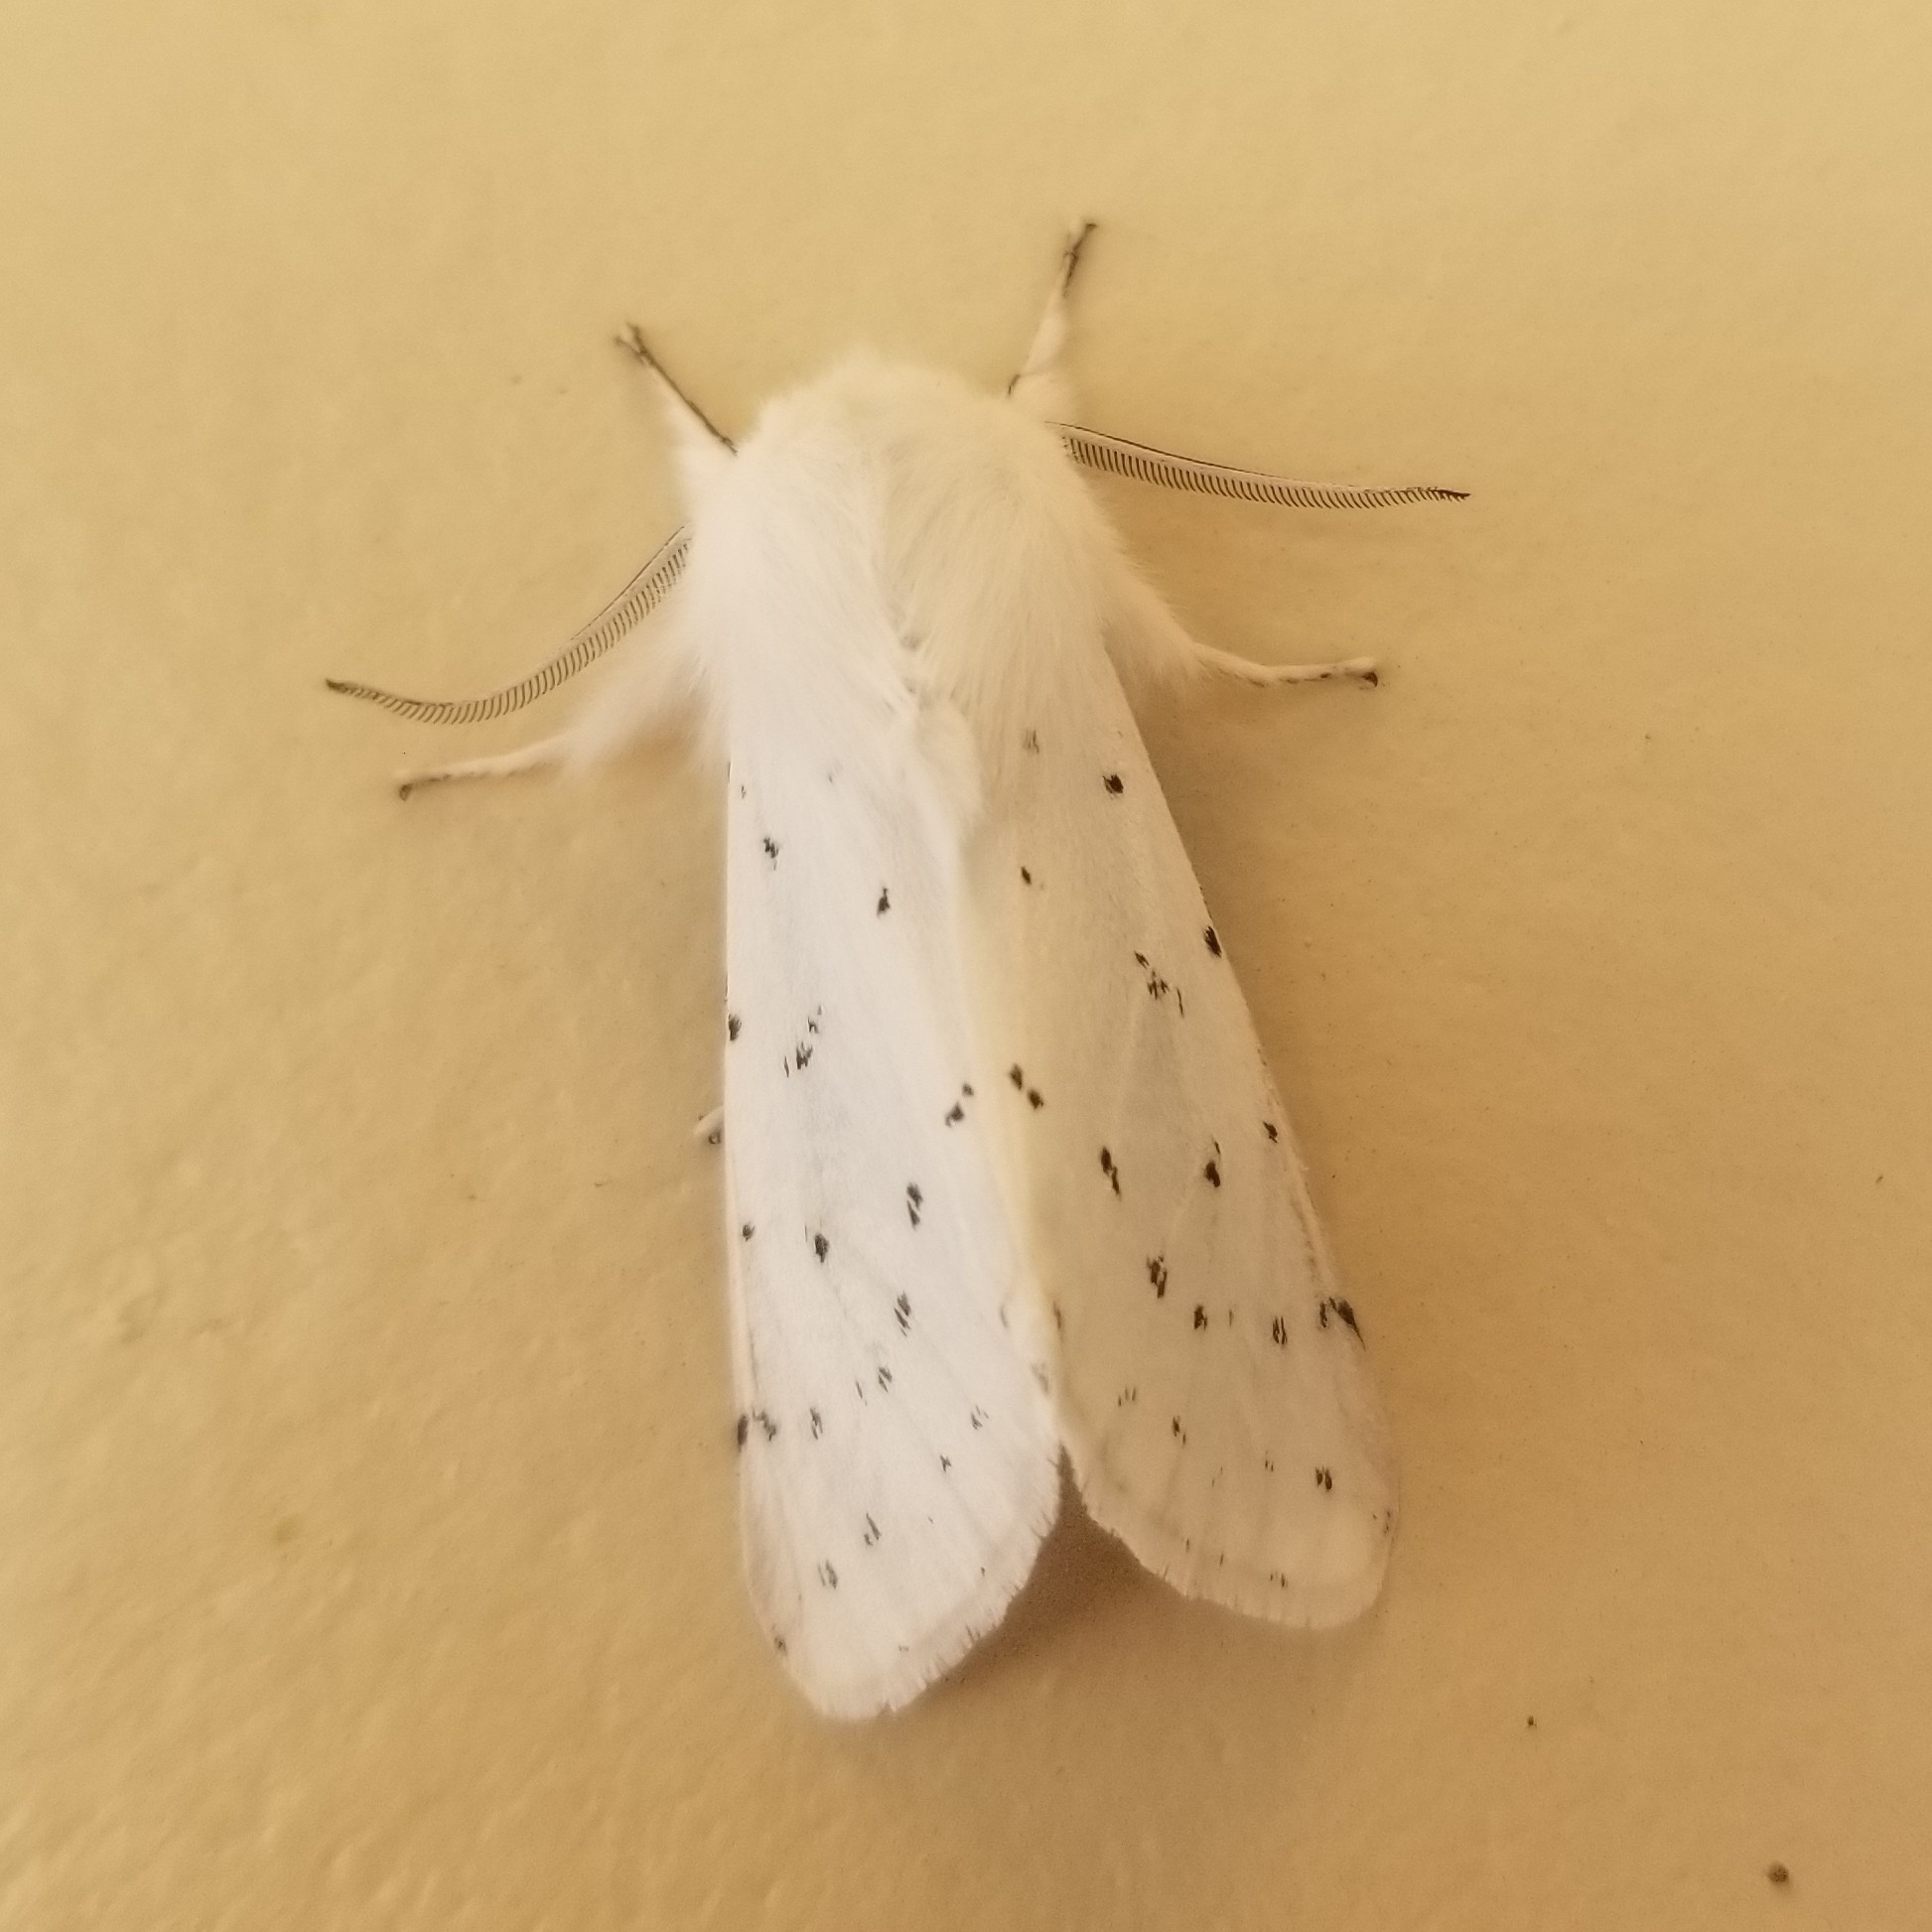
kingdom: Animalia
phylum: Arthropoda
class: Insecta
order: Lepidoptera
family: Erebidae
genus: Spilosoma
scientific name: Spilosoma vestalis
